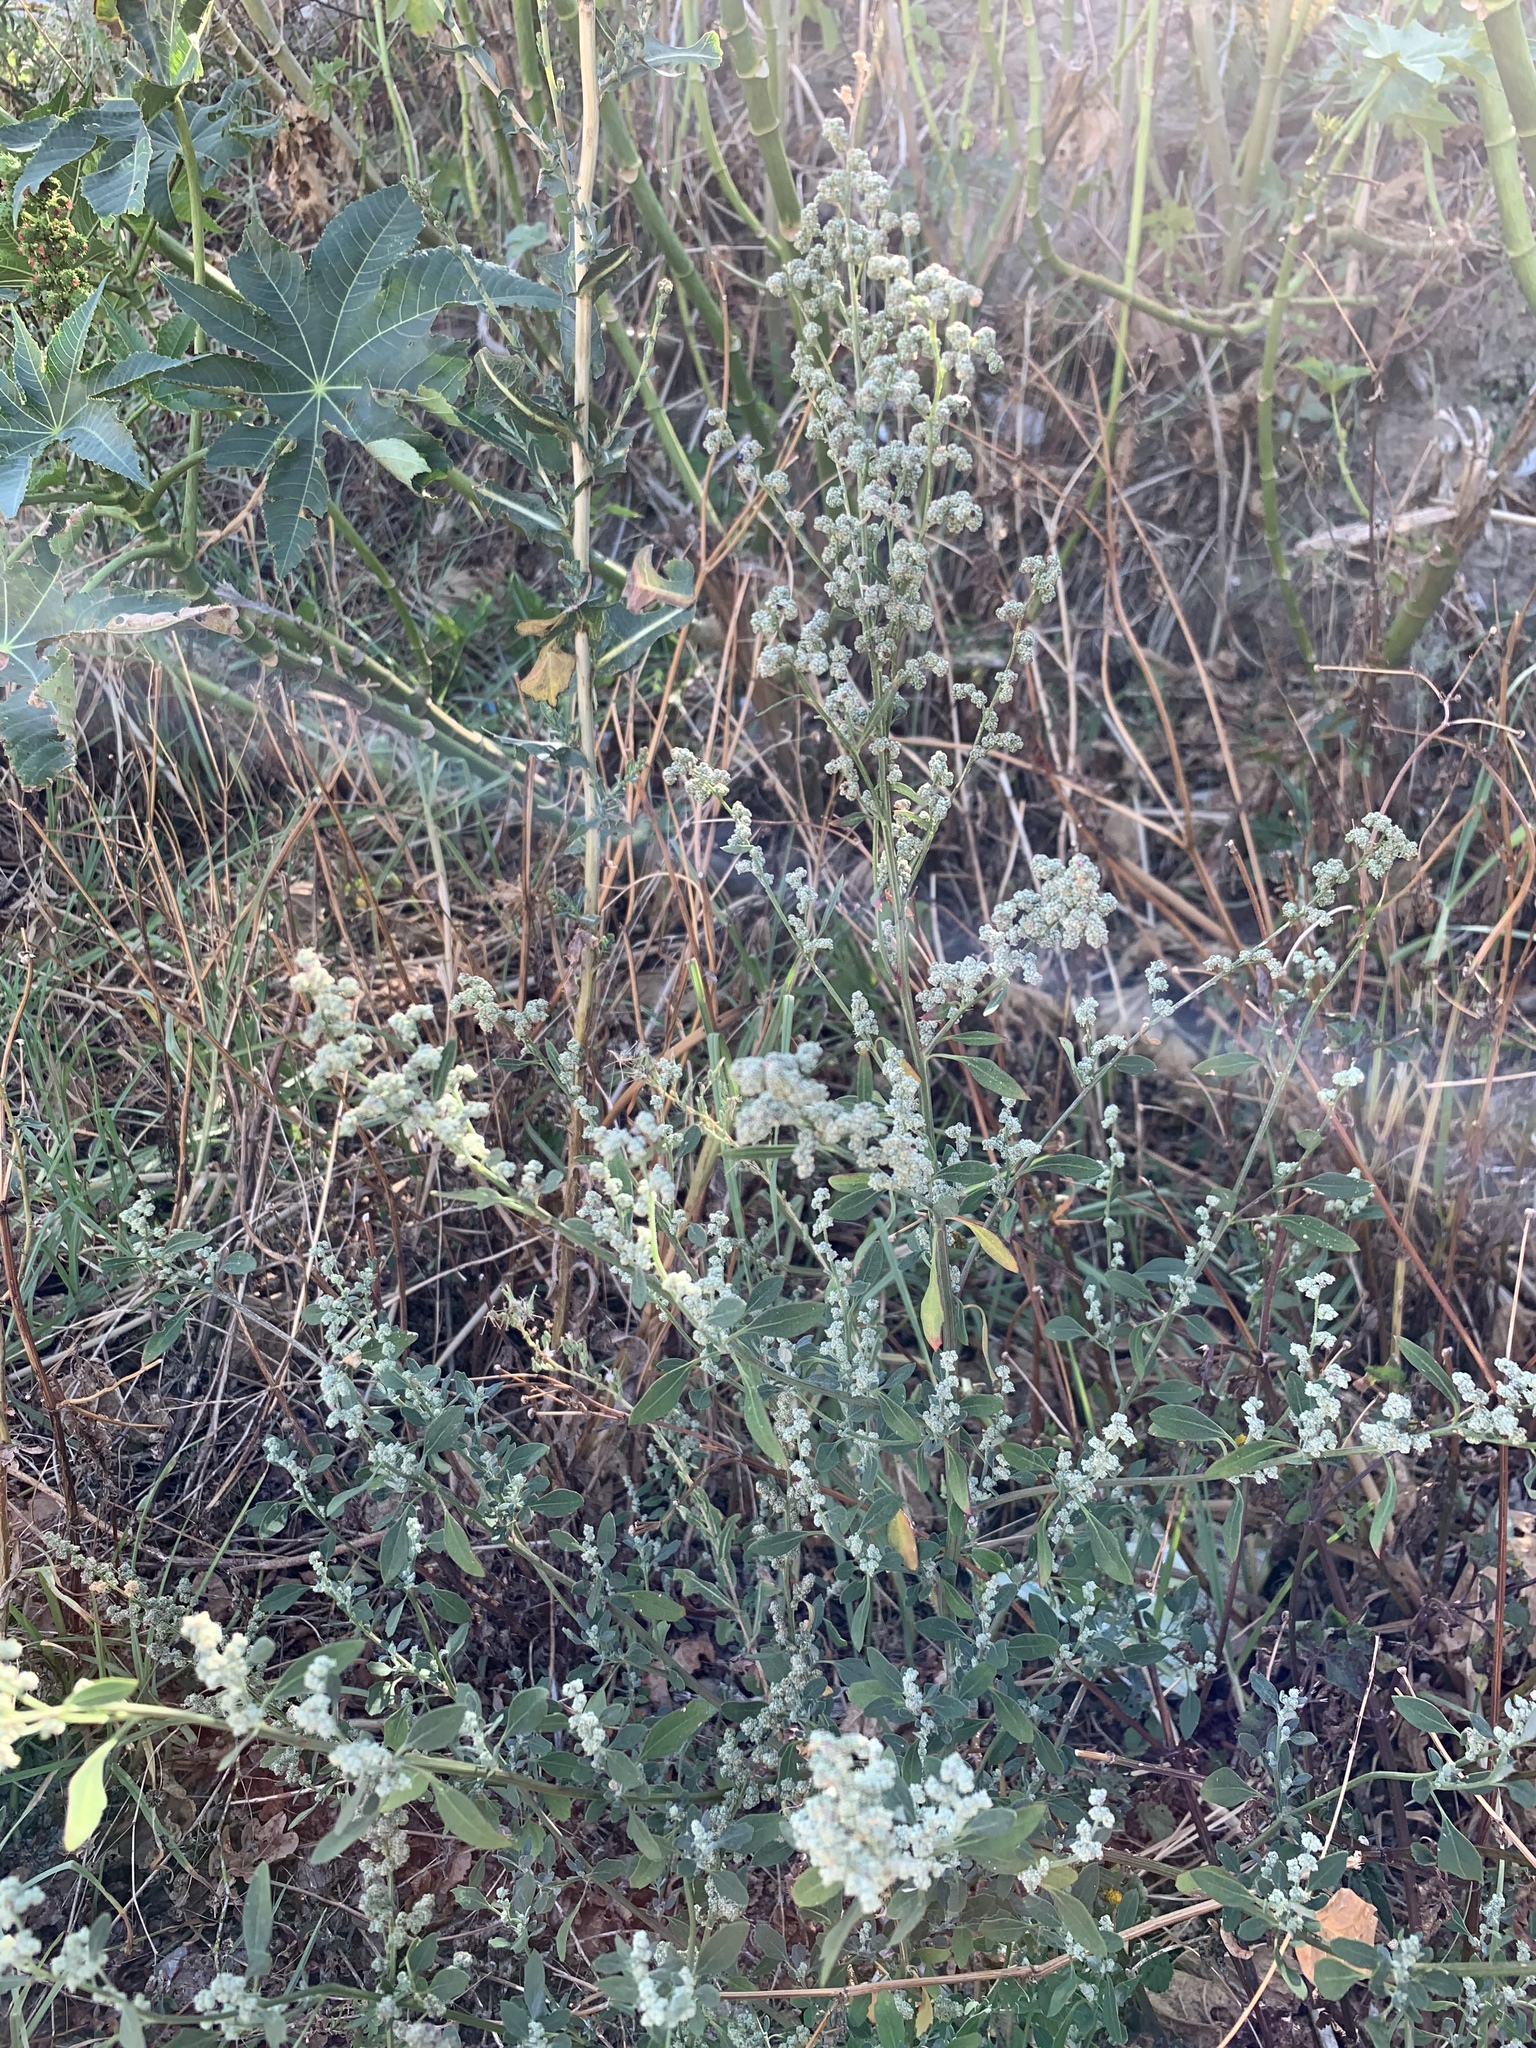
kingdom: Plantae
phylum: Tracheophyta
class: Magnoliopsida
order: Caryophyllales
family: Amaranthaceae
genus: Chenopodium
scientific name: Chenopodium album
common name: Fat-hen
